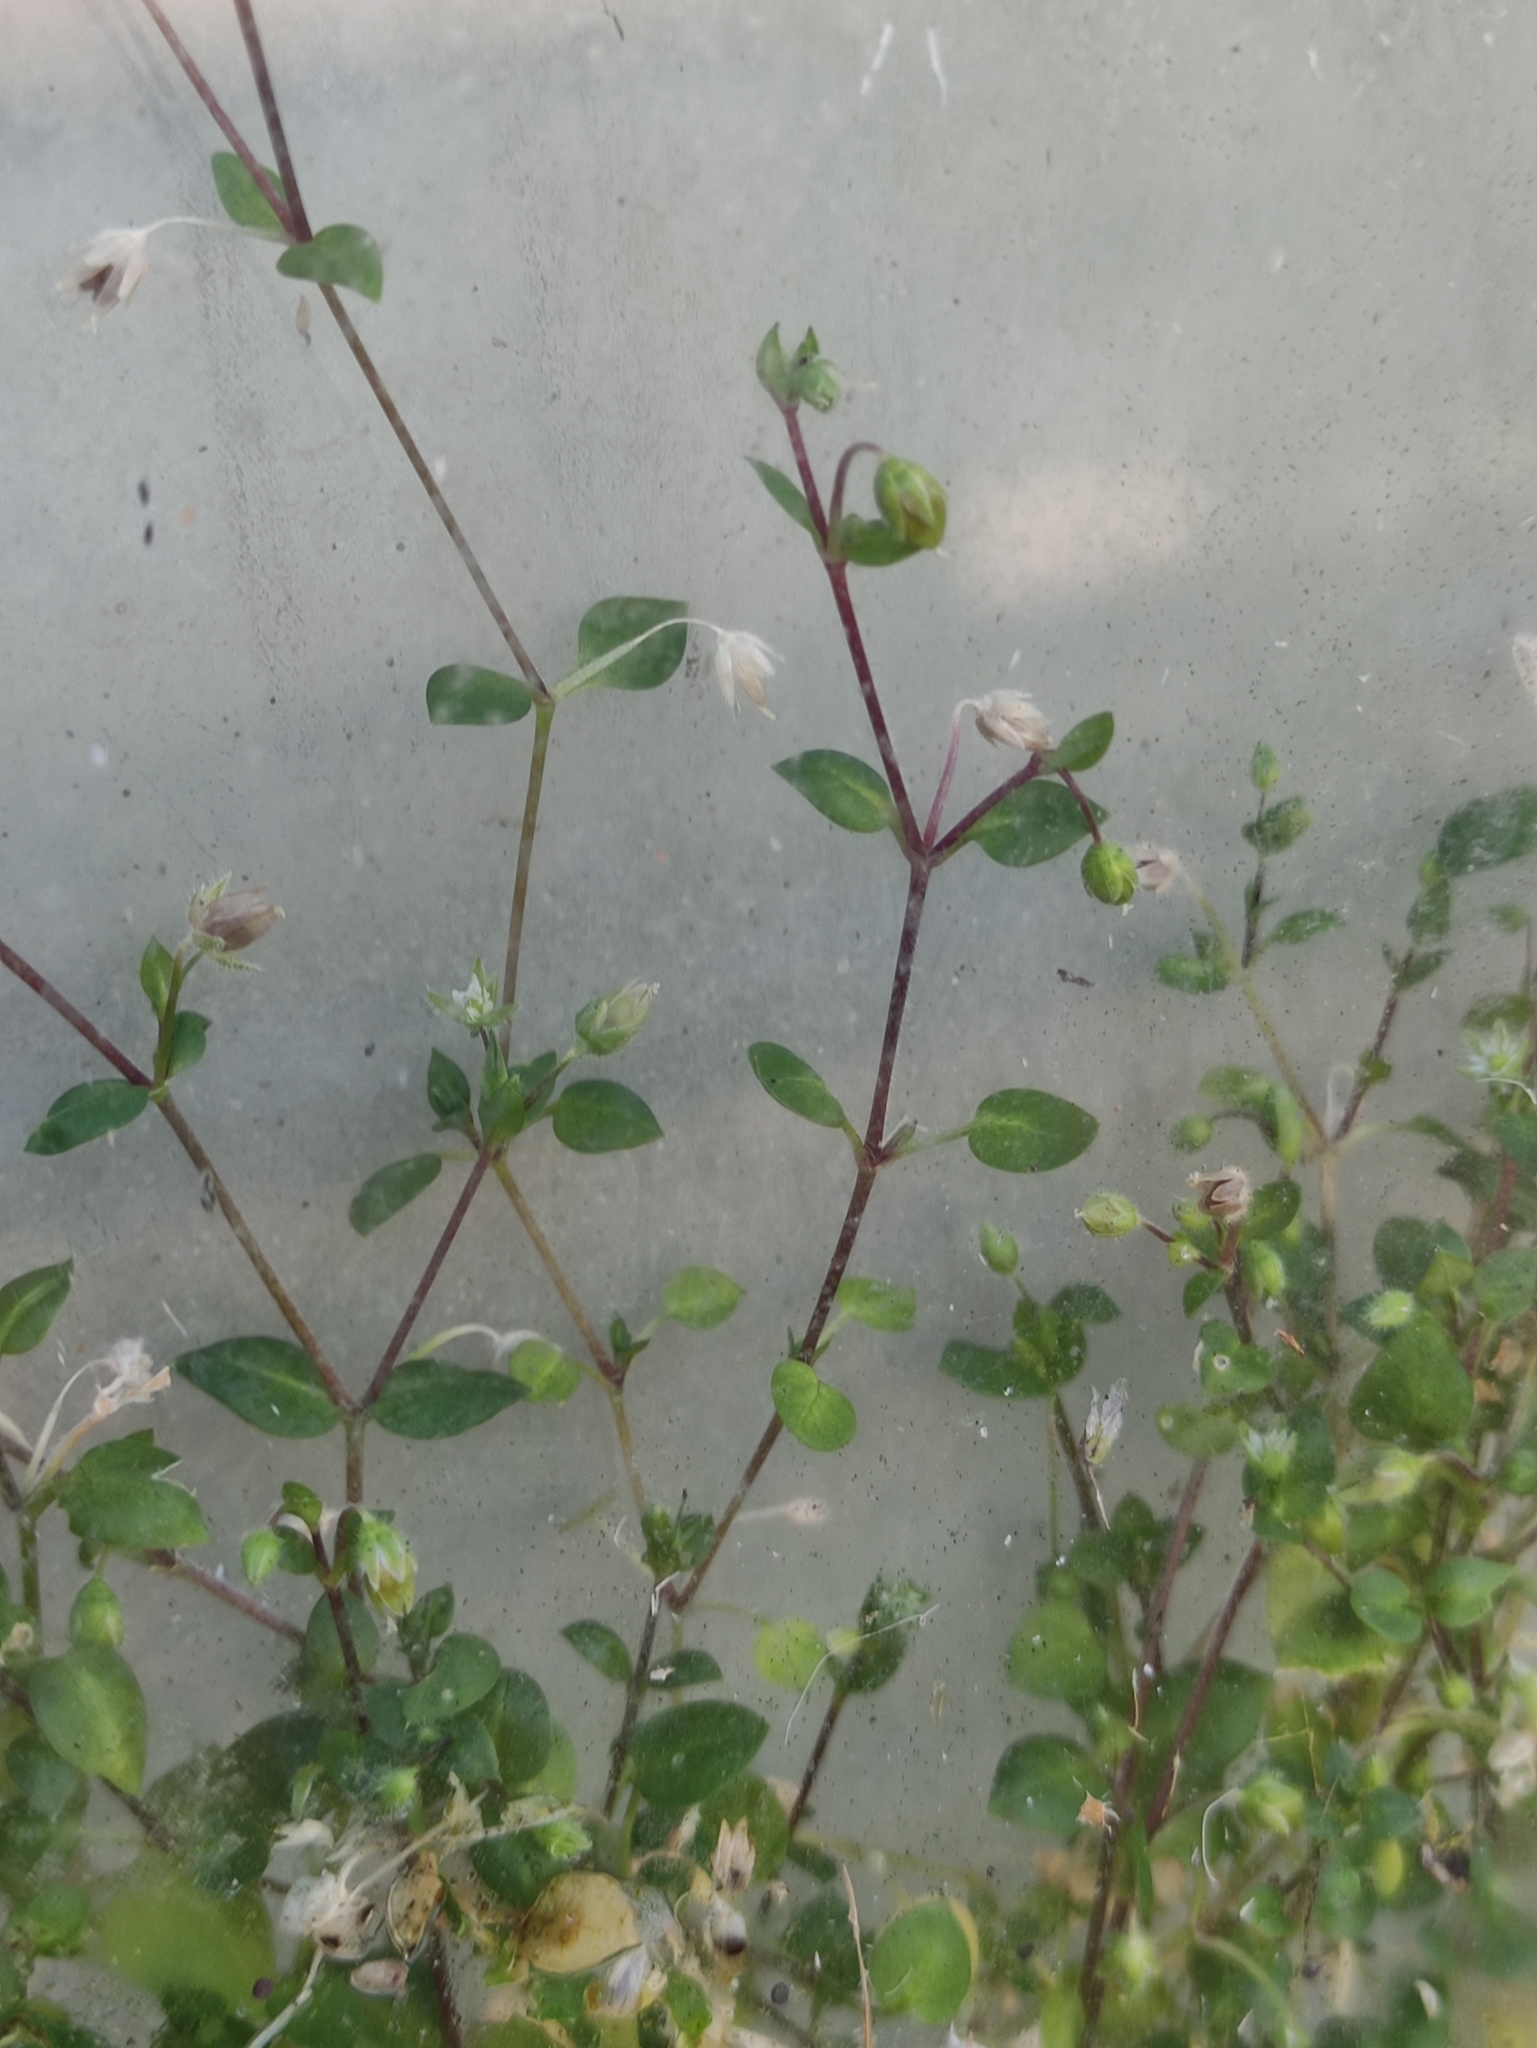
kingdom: Plantae
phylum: Tracheophyta
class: Magnoliopsida
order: Caryophyllales
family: Caryophyllaceae
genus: Stellaria
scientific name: Stellaria media
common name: Common chickweed
